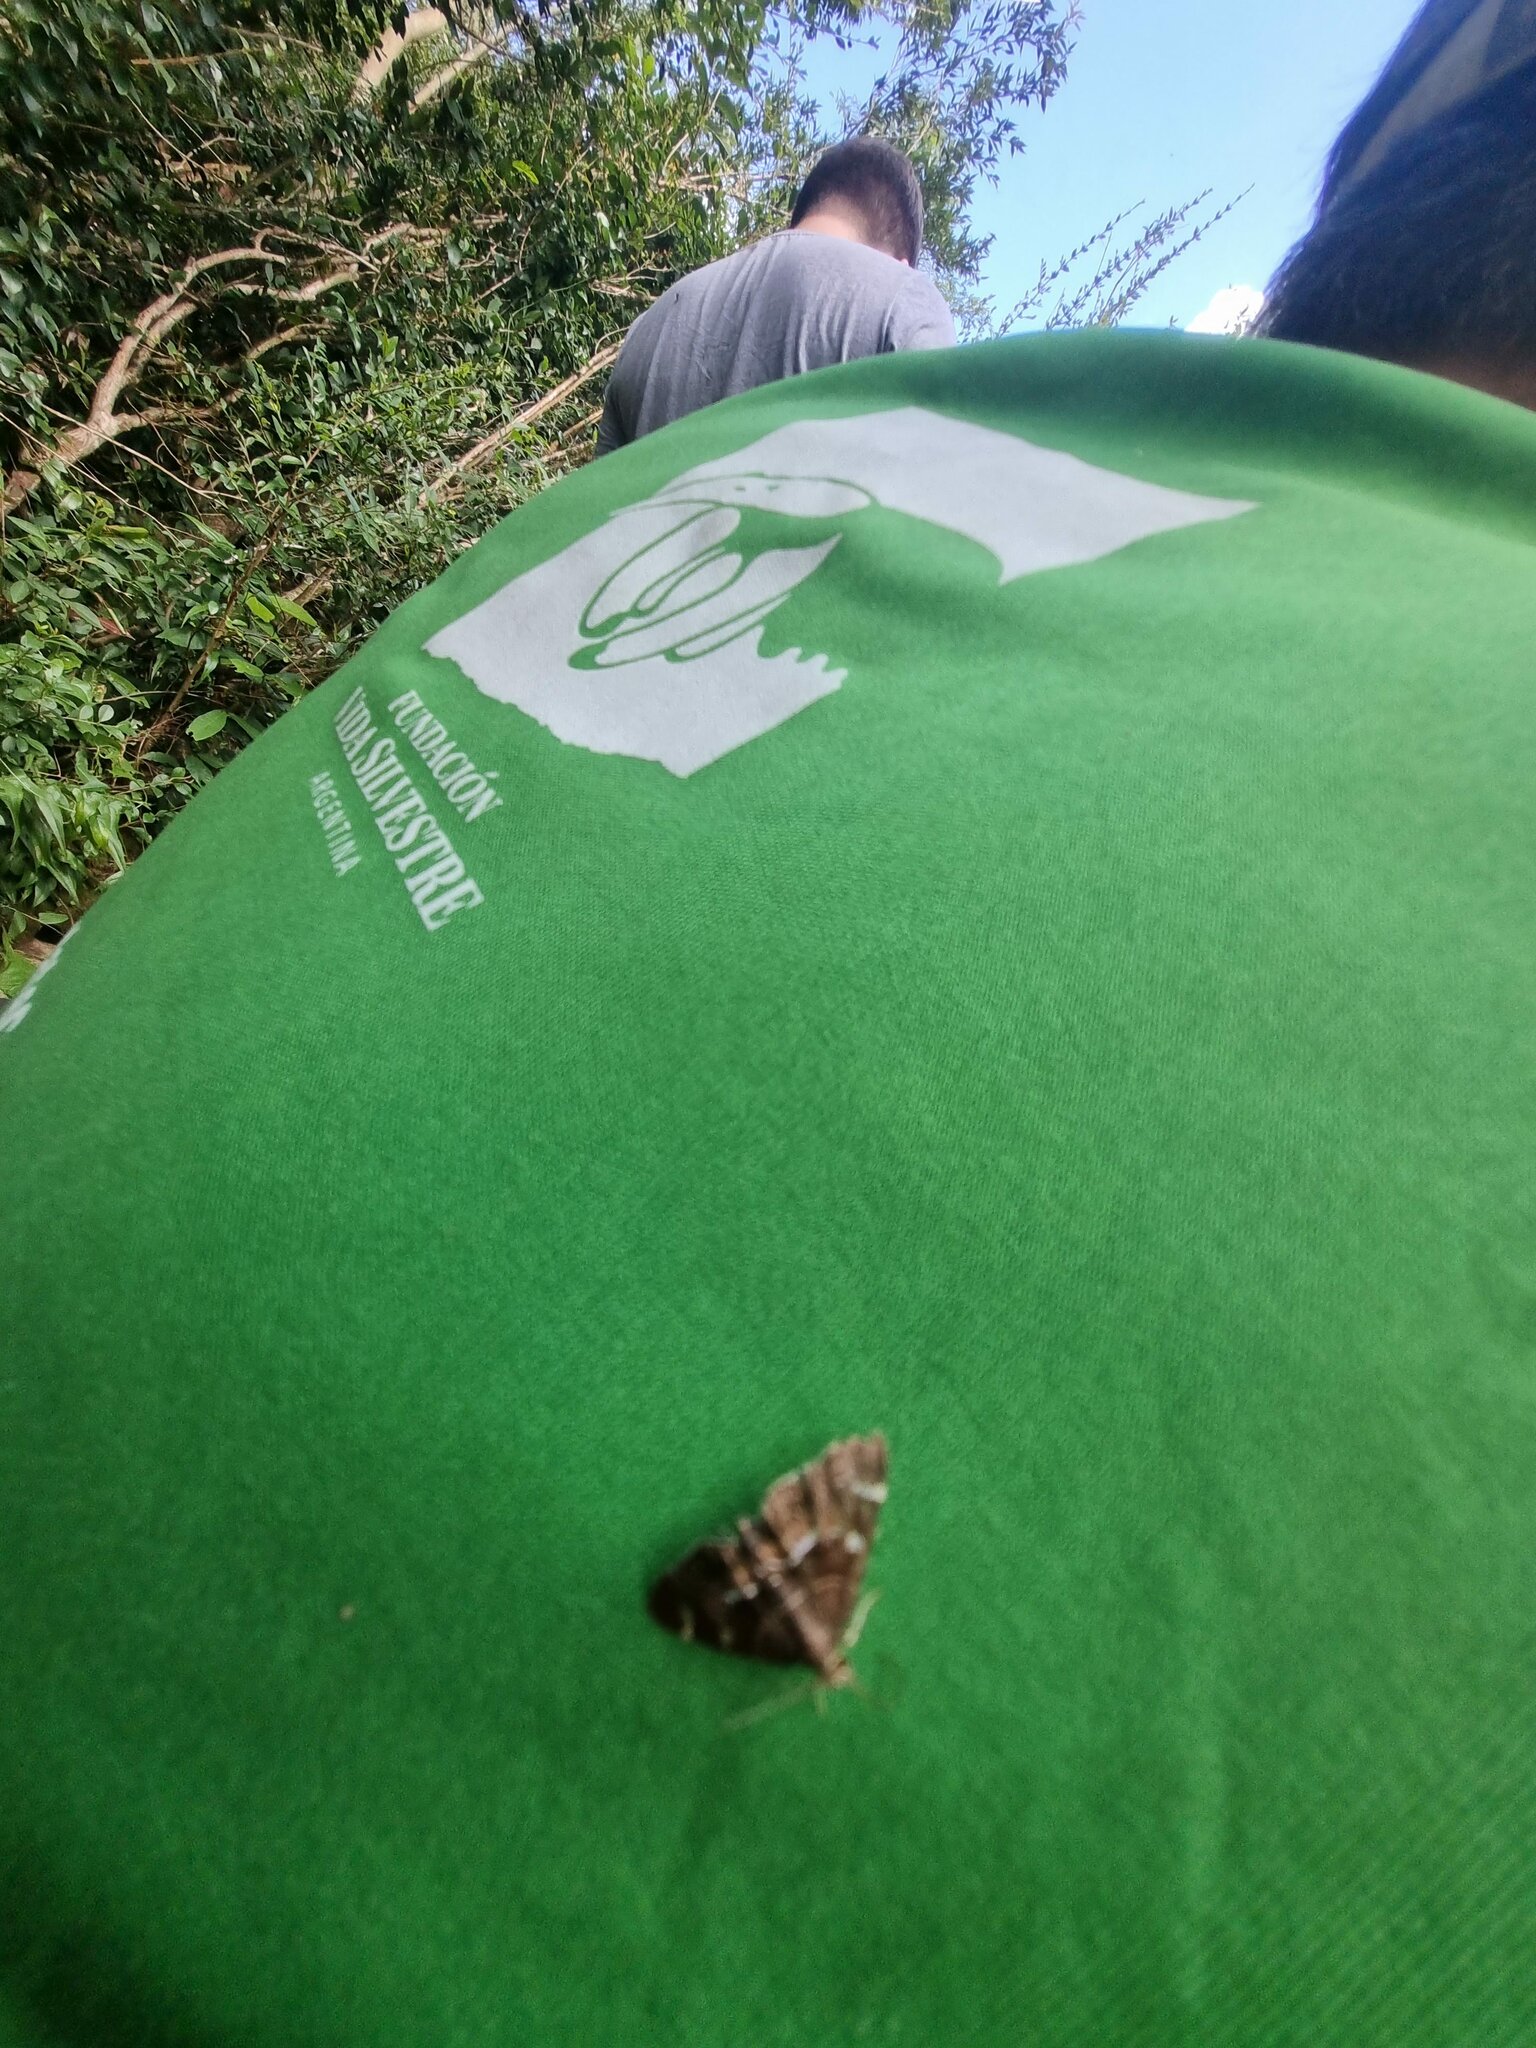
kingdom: Animalia
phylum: Arthropoda
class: Insecta
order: Lepidoptera
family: Crambidae
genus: Hymenia
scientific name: Hymenia perspectalis
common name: Spotted beet webworm
